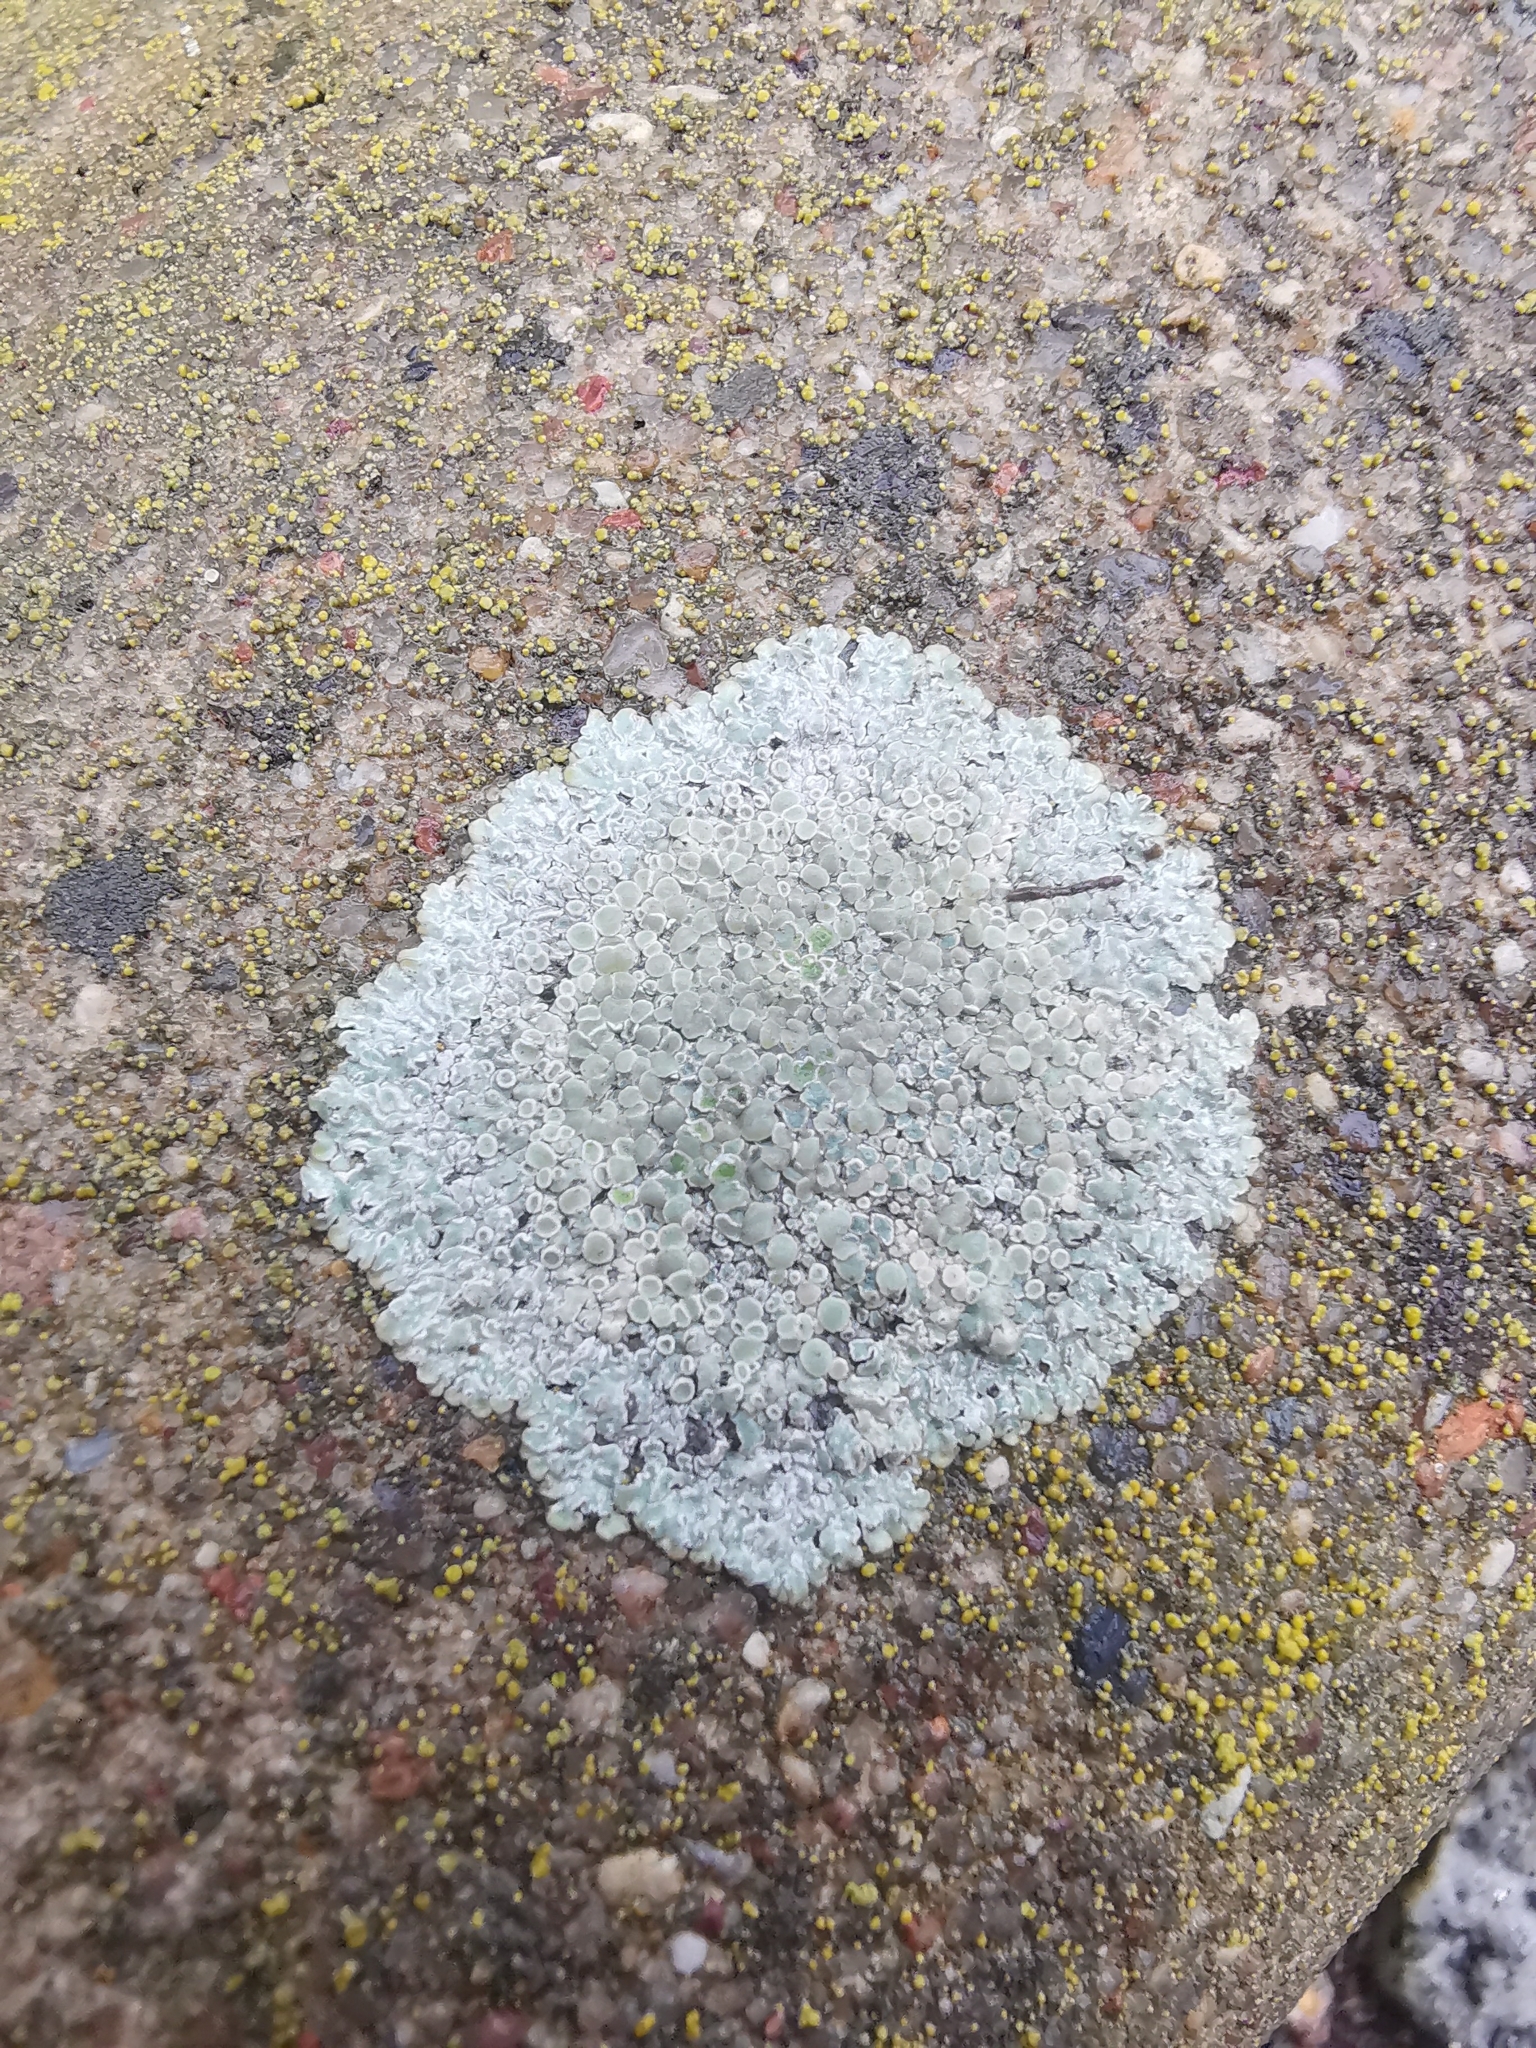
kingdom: Fungi
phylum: Ascomycota
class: Lecanoromycetes
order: Lecanorales
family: Lecanoraceae
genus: Protoparmeliopsis
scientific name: Protoparmeliopsis muralis
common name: Stonewall rim lichen
